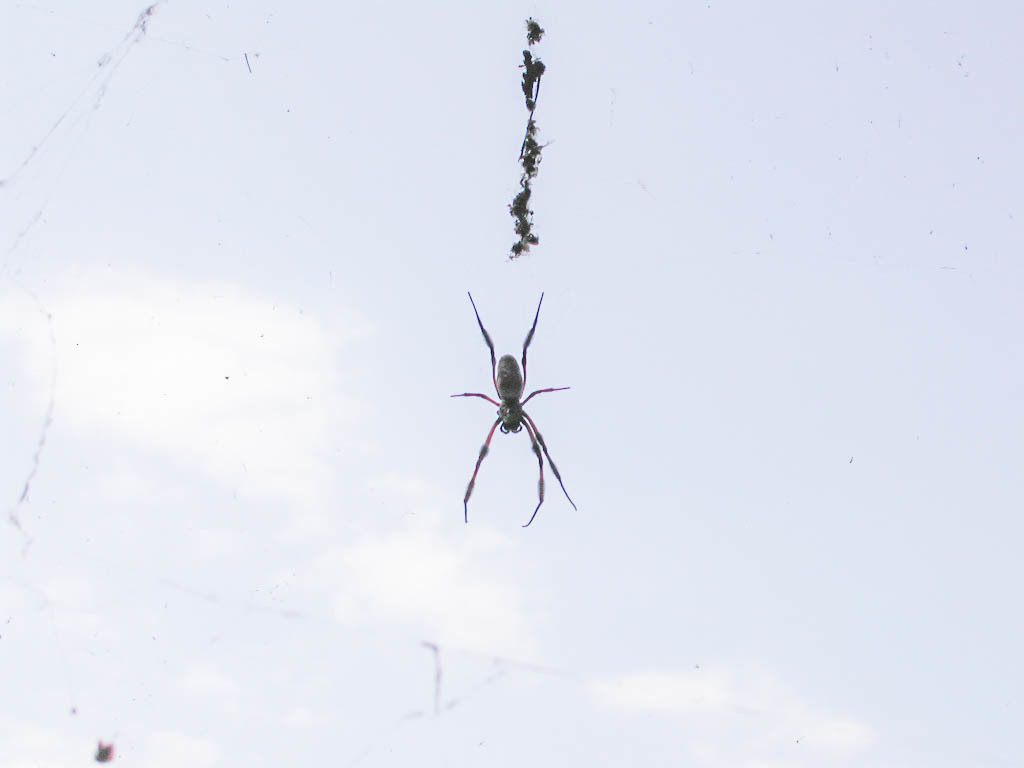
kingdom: Animalia
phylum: Arthropoda
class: Arachnida
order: Araneae
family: Araneidae
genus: Trichonephila
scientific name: Trichonephila edulis
